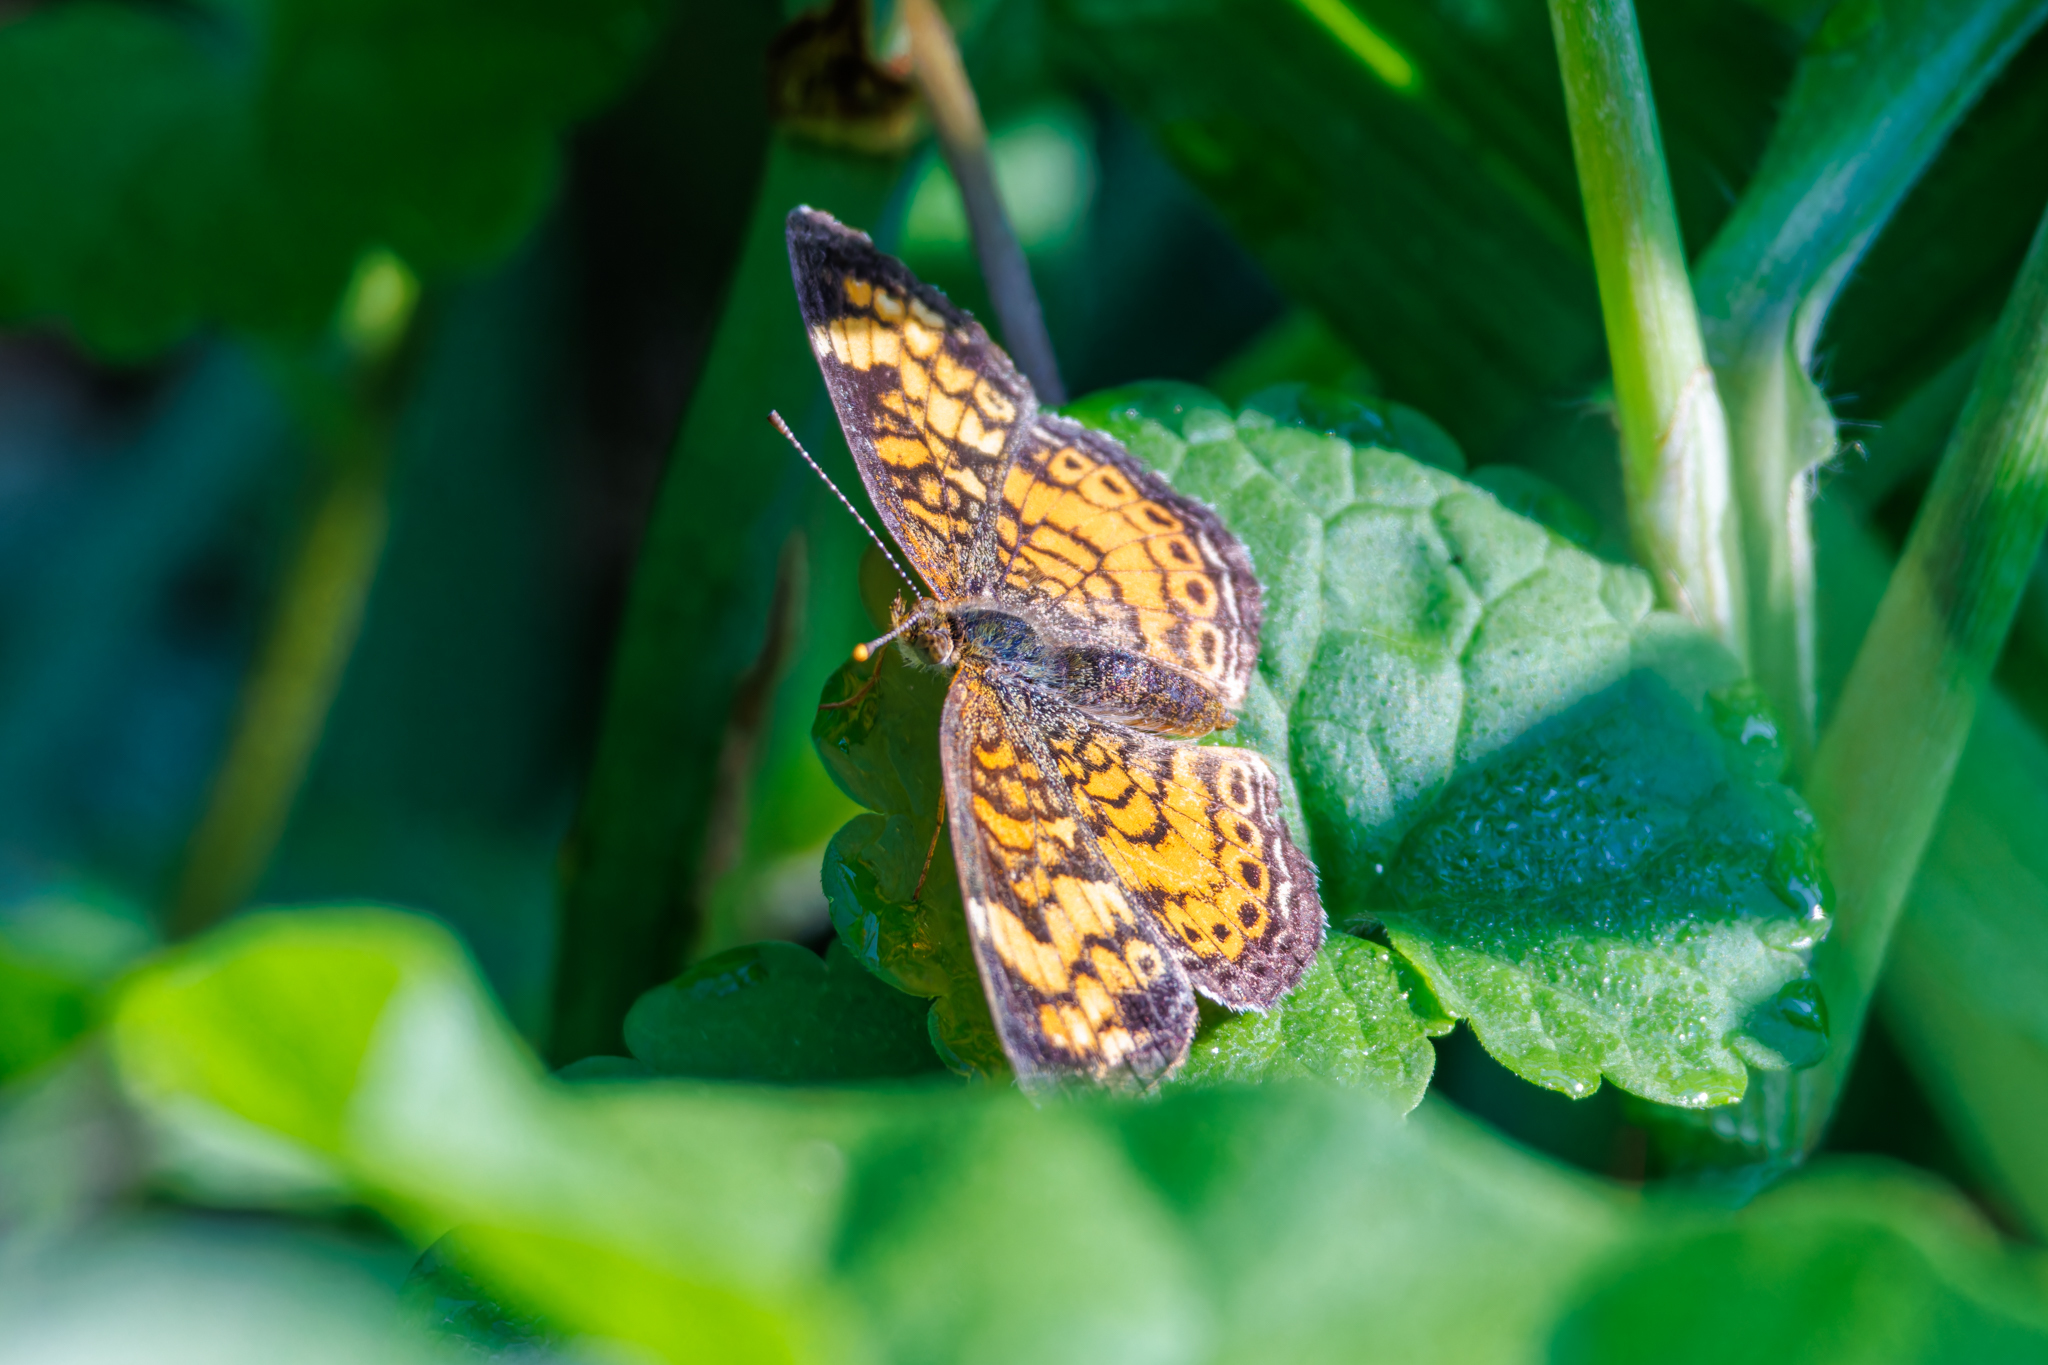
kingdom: Animalia
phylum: Arthropoda
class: Insecta
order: Lepidoptera
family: Nymphalidae
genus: Phyciodes
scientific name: Phyciodes tharos
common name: Pearl crescent
